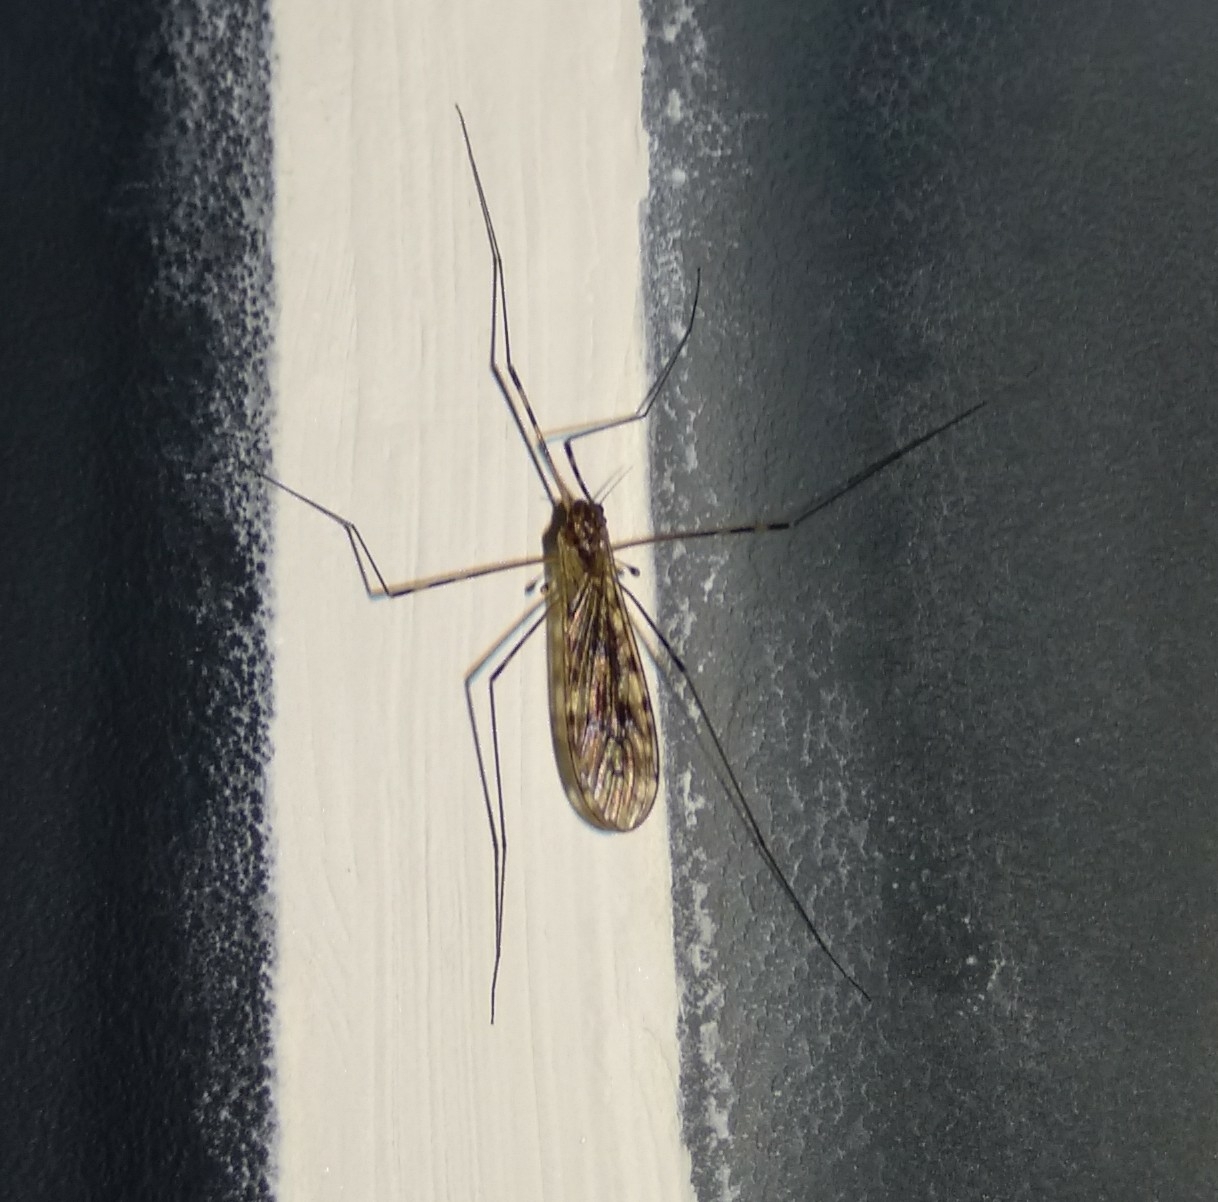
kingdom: Animalia
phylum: Arthropoda
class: Insecta
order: Diptera
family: Limoniidae
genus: Limonia
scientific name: Limonia nubeculosa
